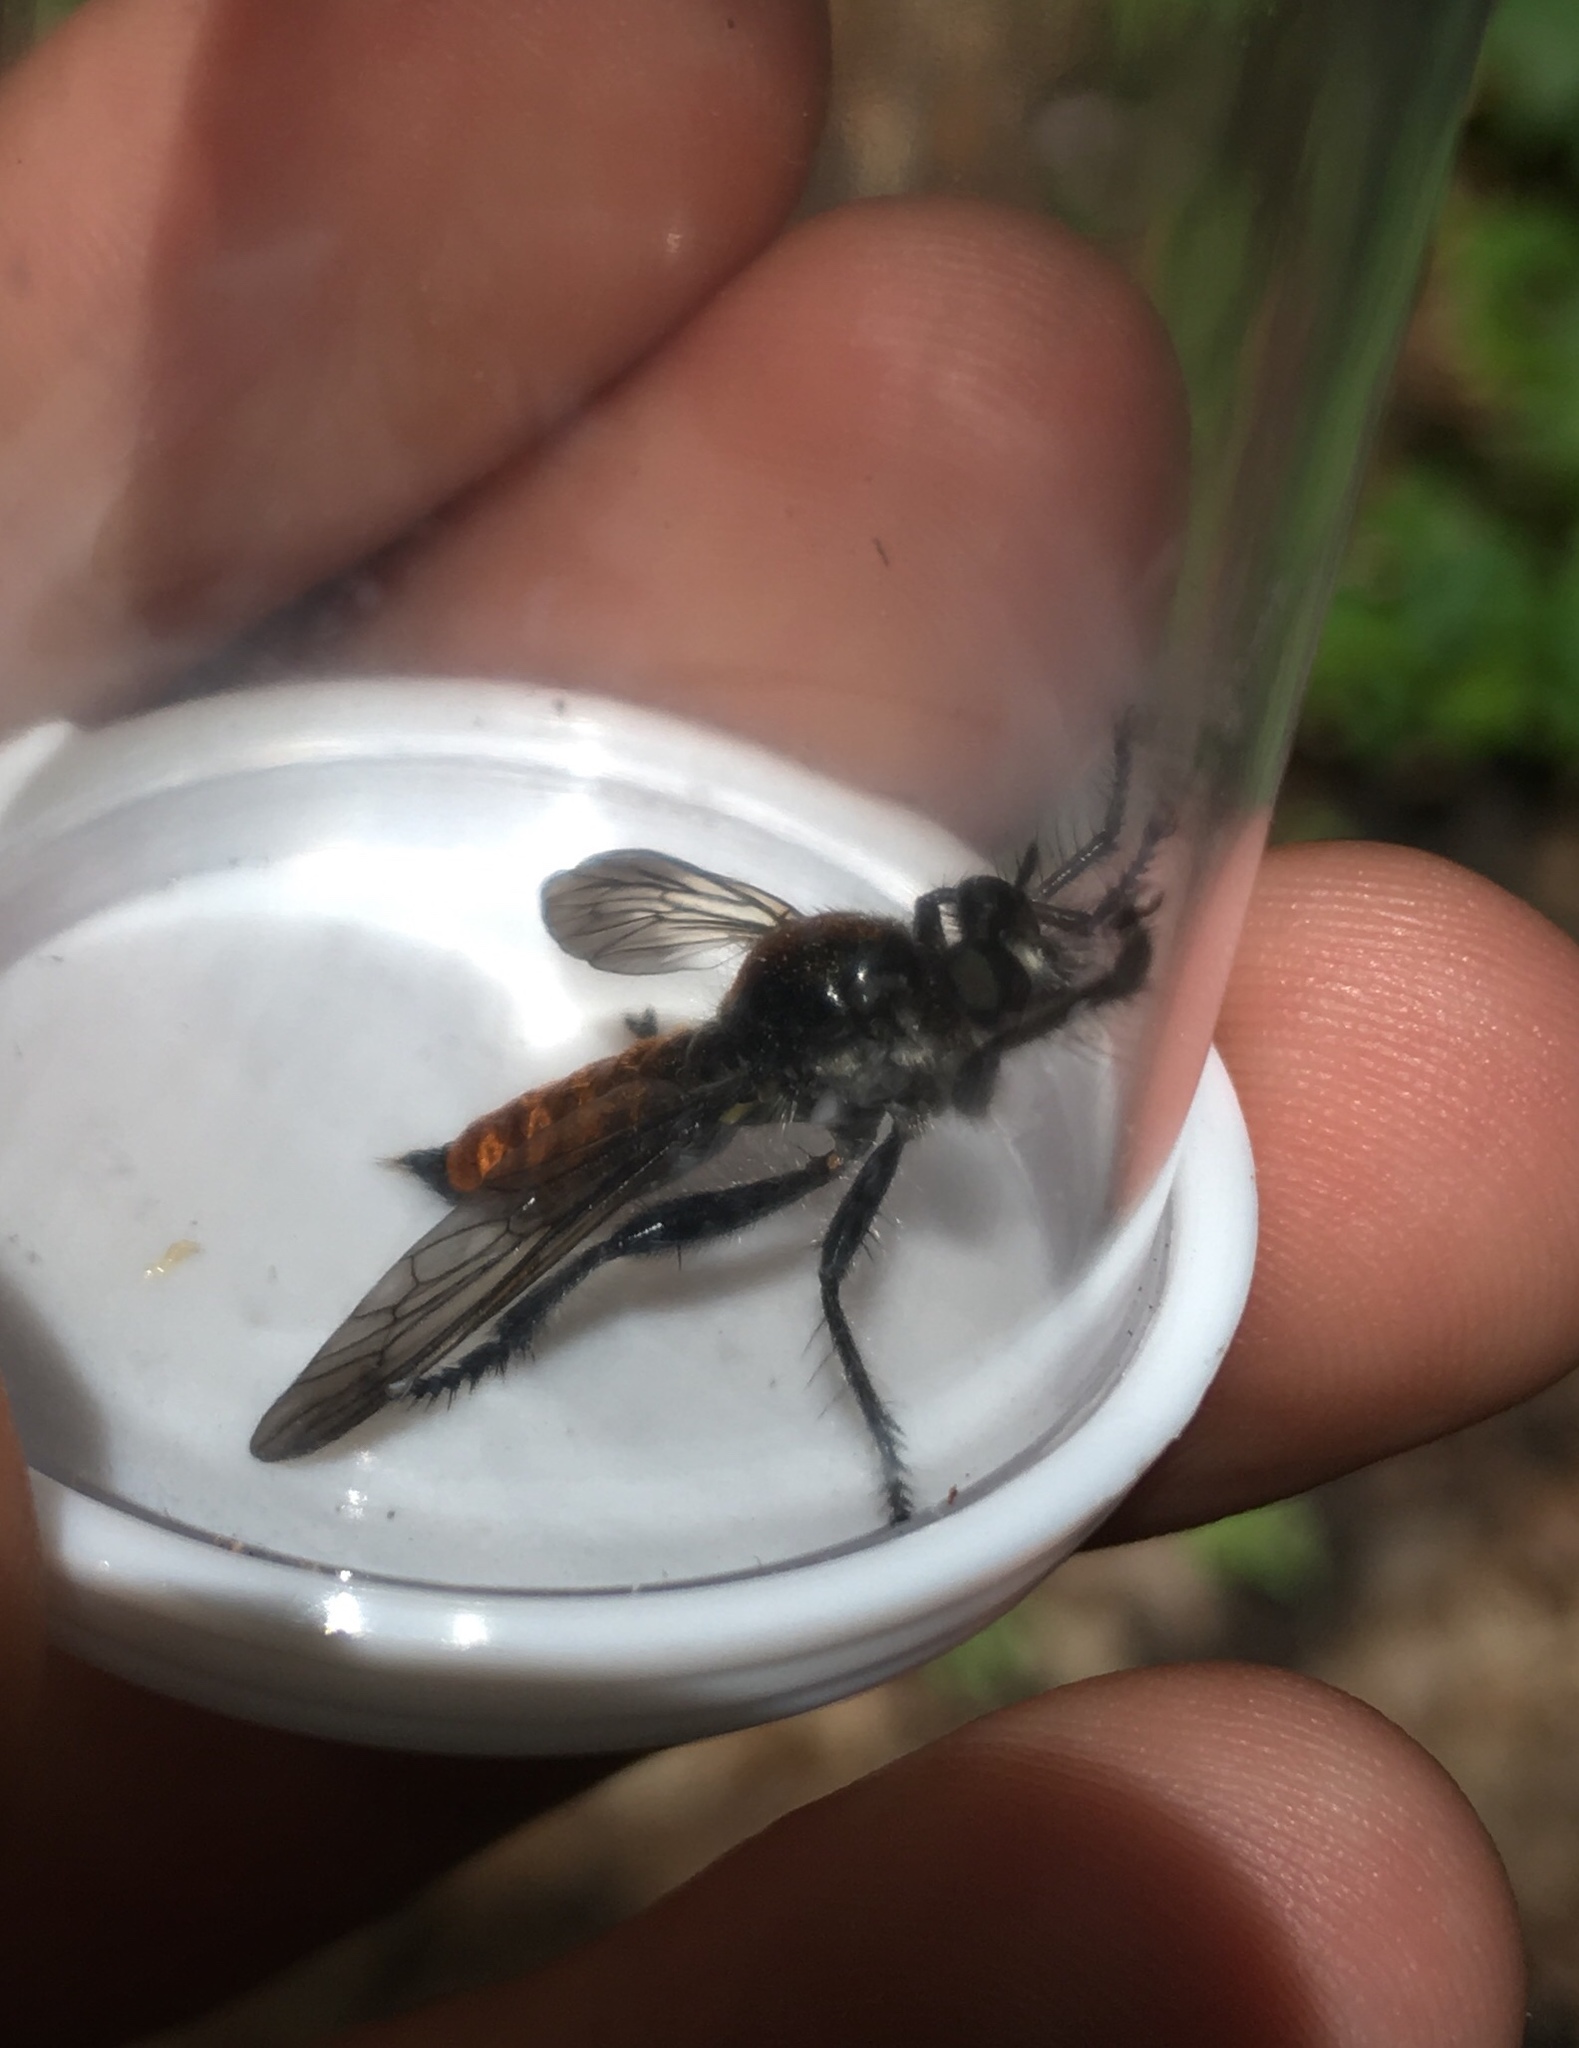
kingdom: Animalia
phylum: Arthropoda
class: Insecta
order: Diptera
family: Asilidae
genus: Laphria
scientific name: Laphria
